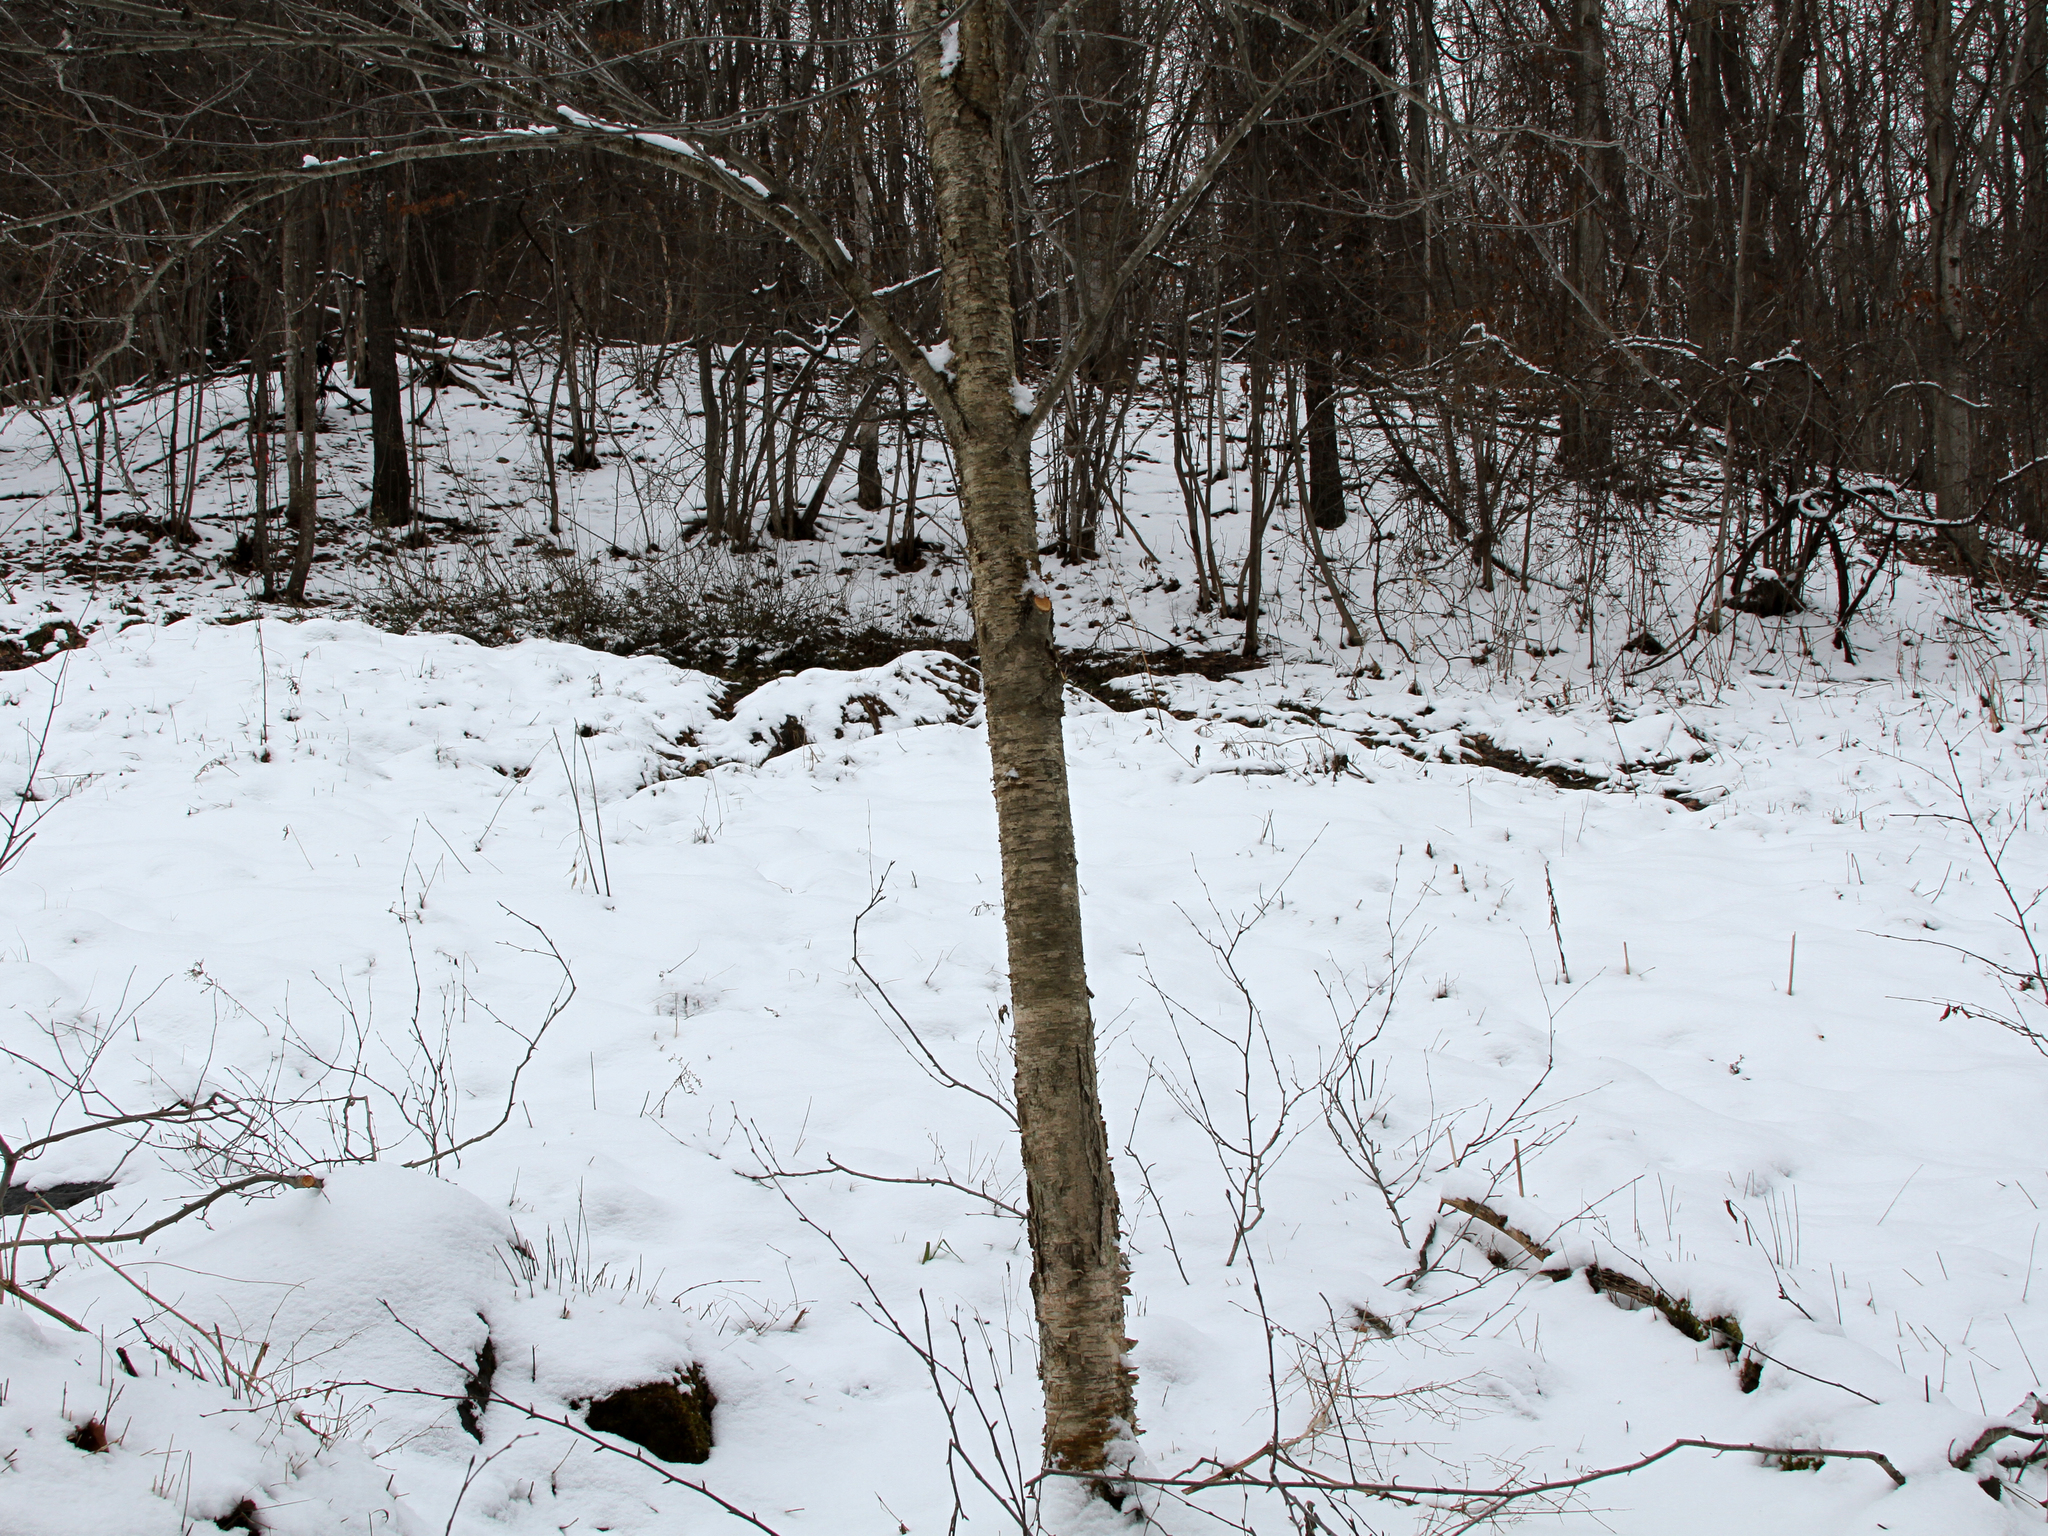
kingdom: Plantae
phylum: Tracheophyta
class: Magnoliopsida
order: Fagales
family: Betulaceae
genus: Betula
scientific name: Betula alleghaniensis
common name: Yellow birch
